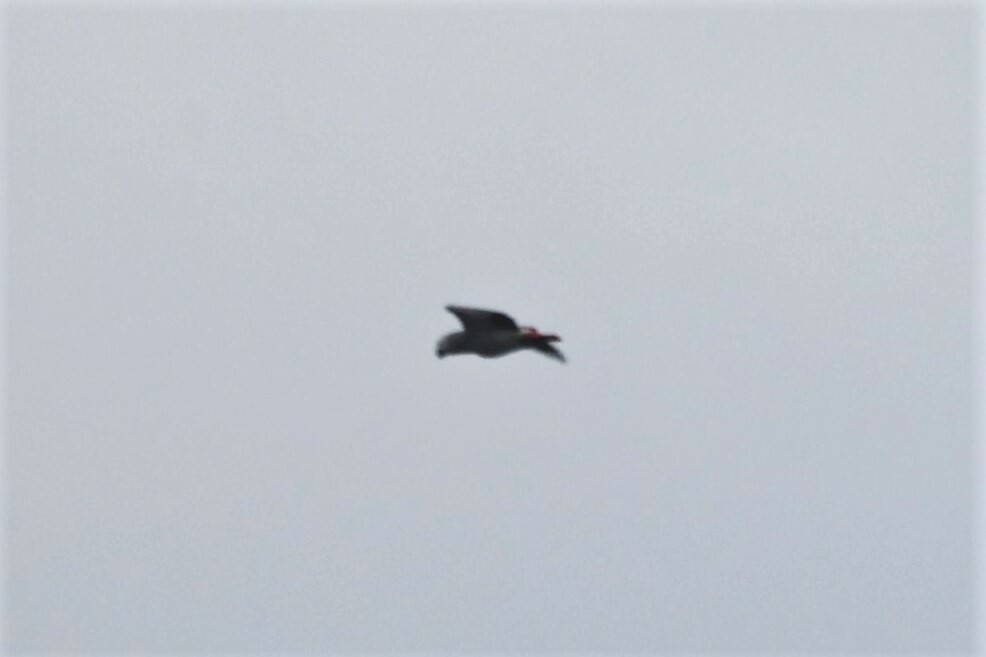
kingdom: Animalia
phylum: Chordata
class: Aves
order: Psittaciformes
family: Psittacidae
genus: Psittacus
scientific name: Psittacus erithacus
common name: Grey parrot
